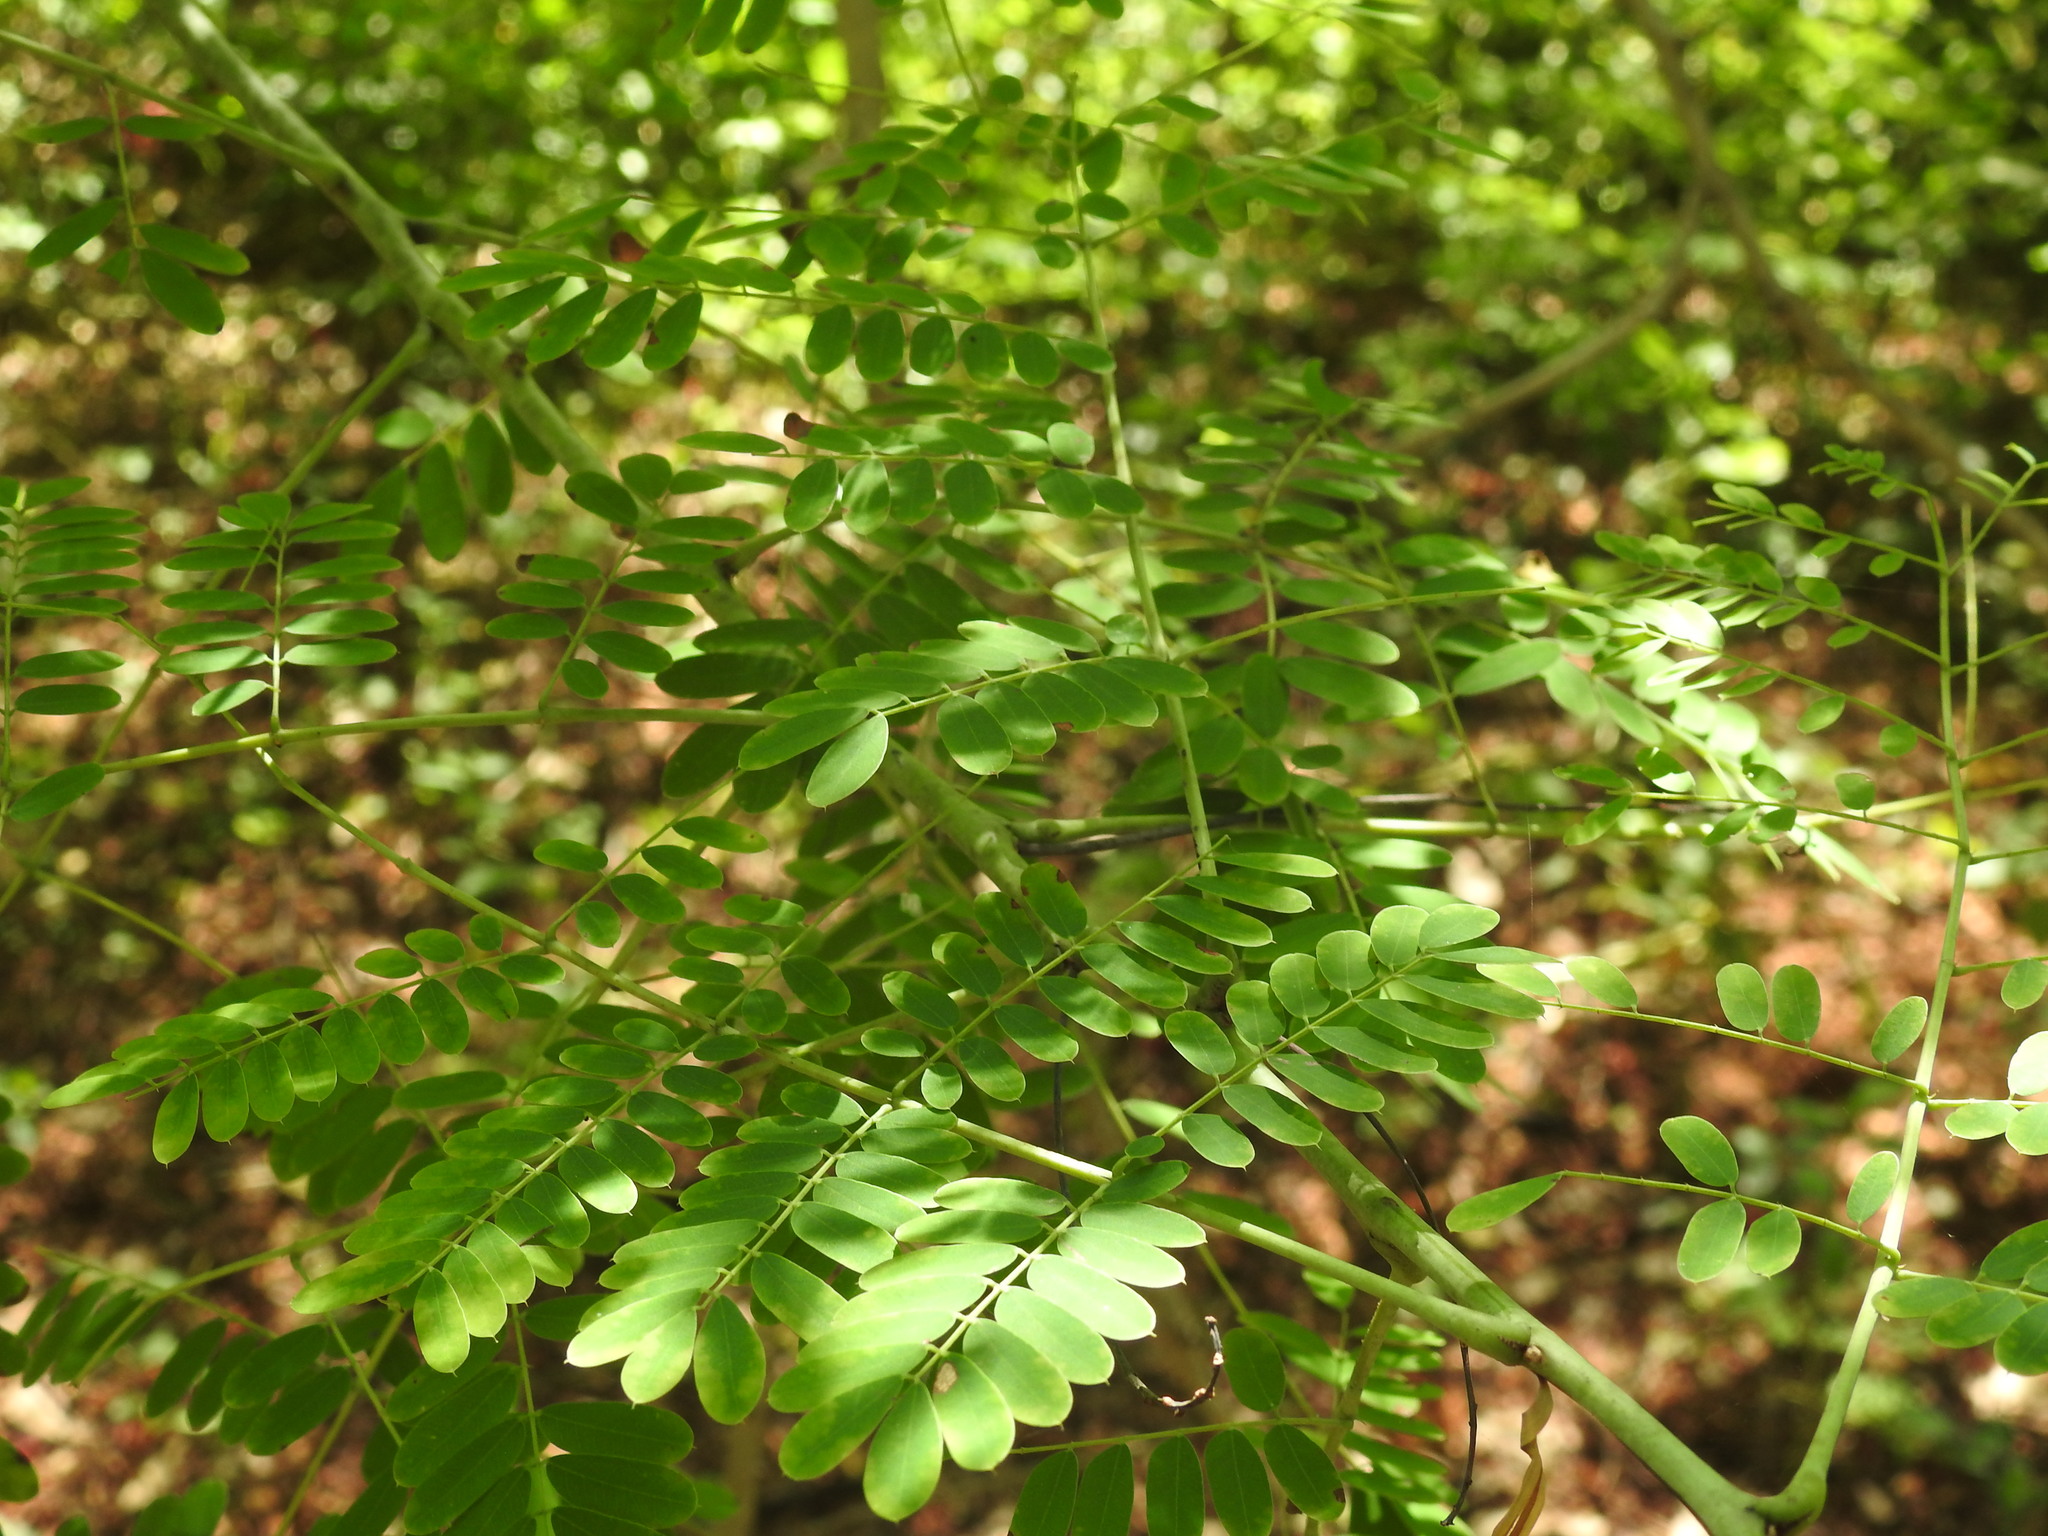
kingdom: Plantae
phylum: Tracheophyta
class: Magnoliopsida
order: Fabales
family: Fabaceae
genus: Caesalpinia
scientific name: Caesalpinia pulcherrima
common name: Pride-of-barbados
